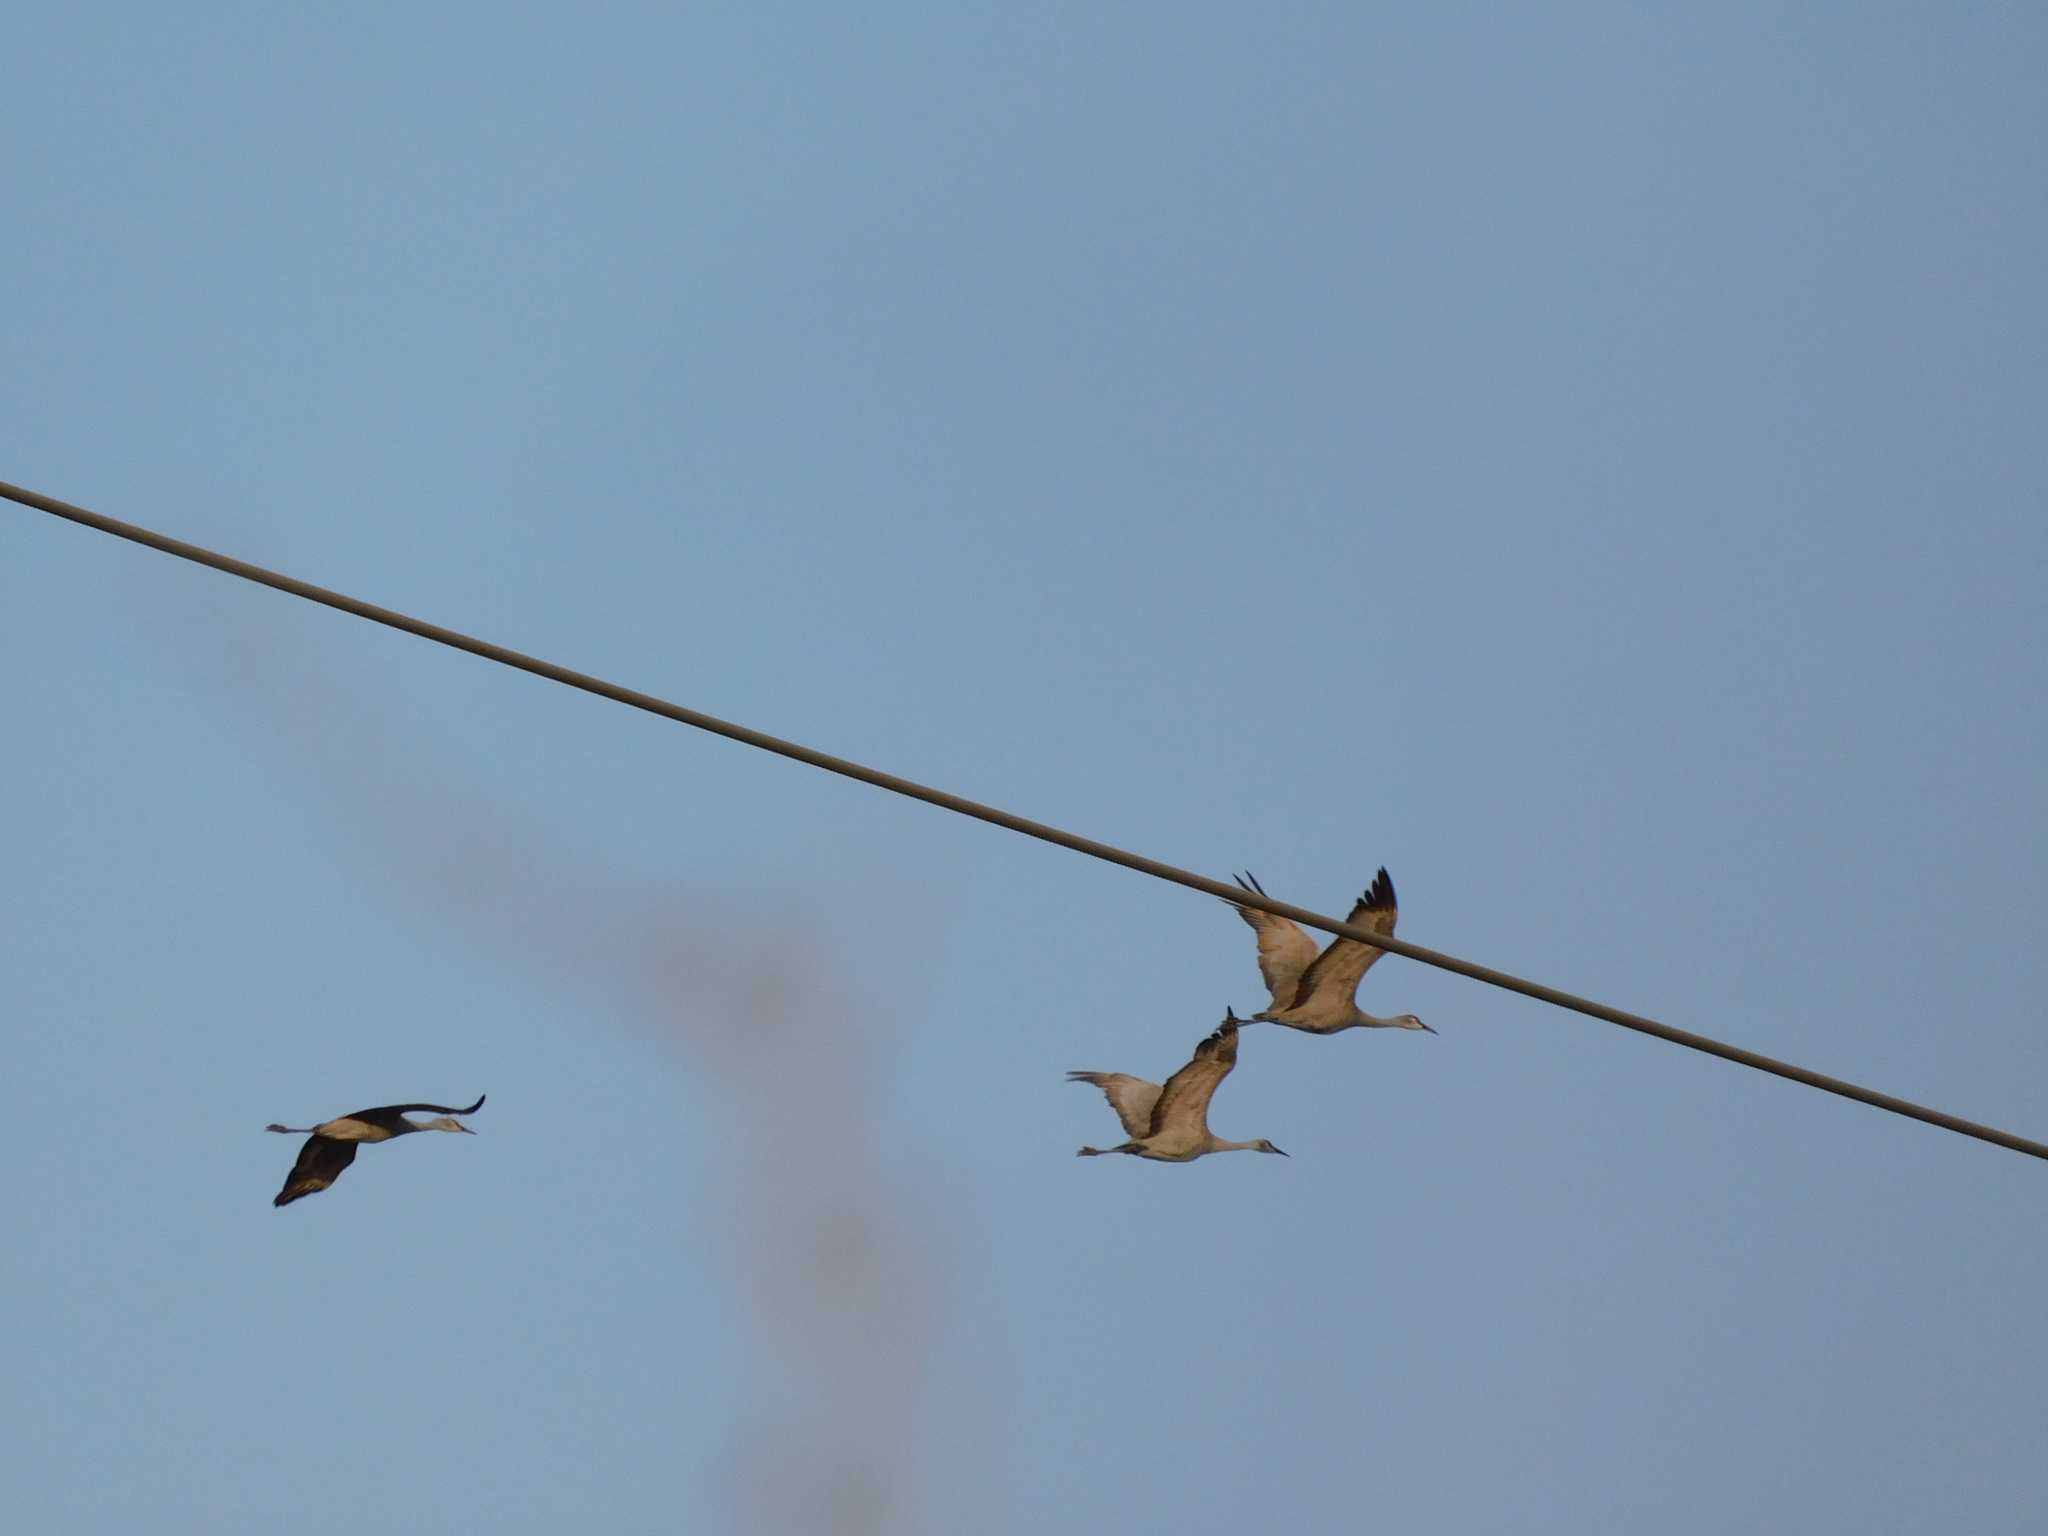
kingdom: Animalia
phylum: Chordata
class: Aves
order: Gruiformes
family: Gruidae
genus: Grus
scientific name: Grus canadensis
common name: Sandhill crane
